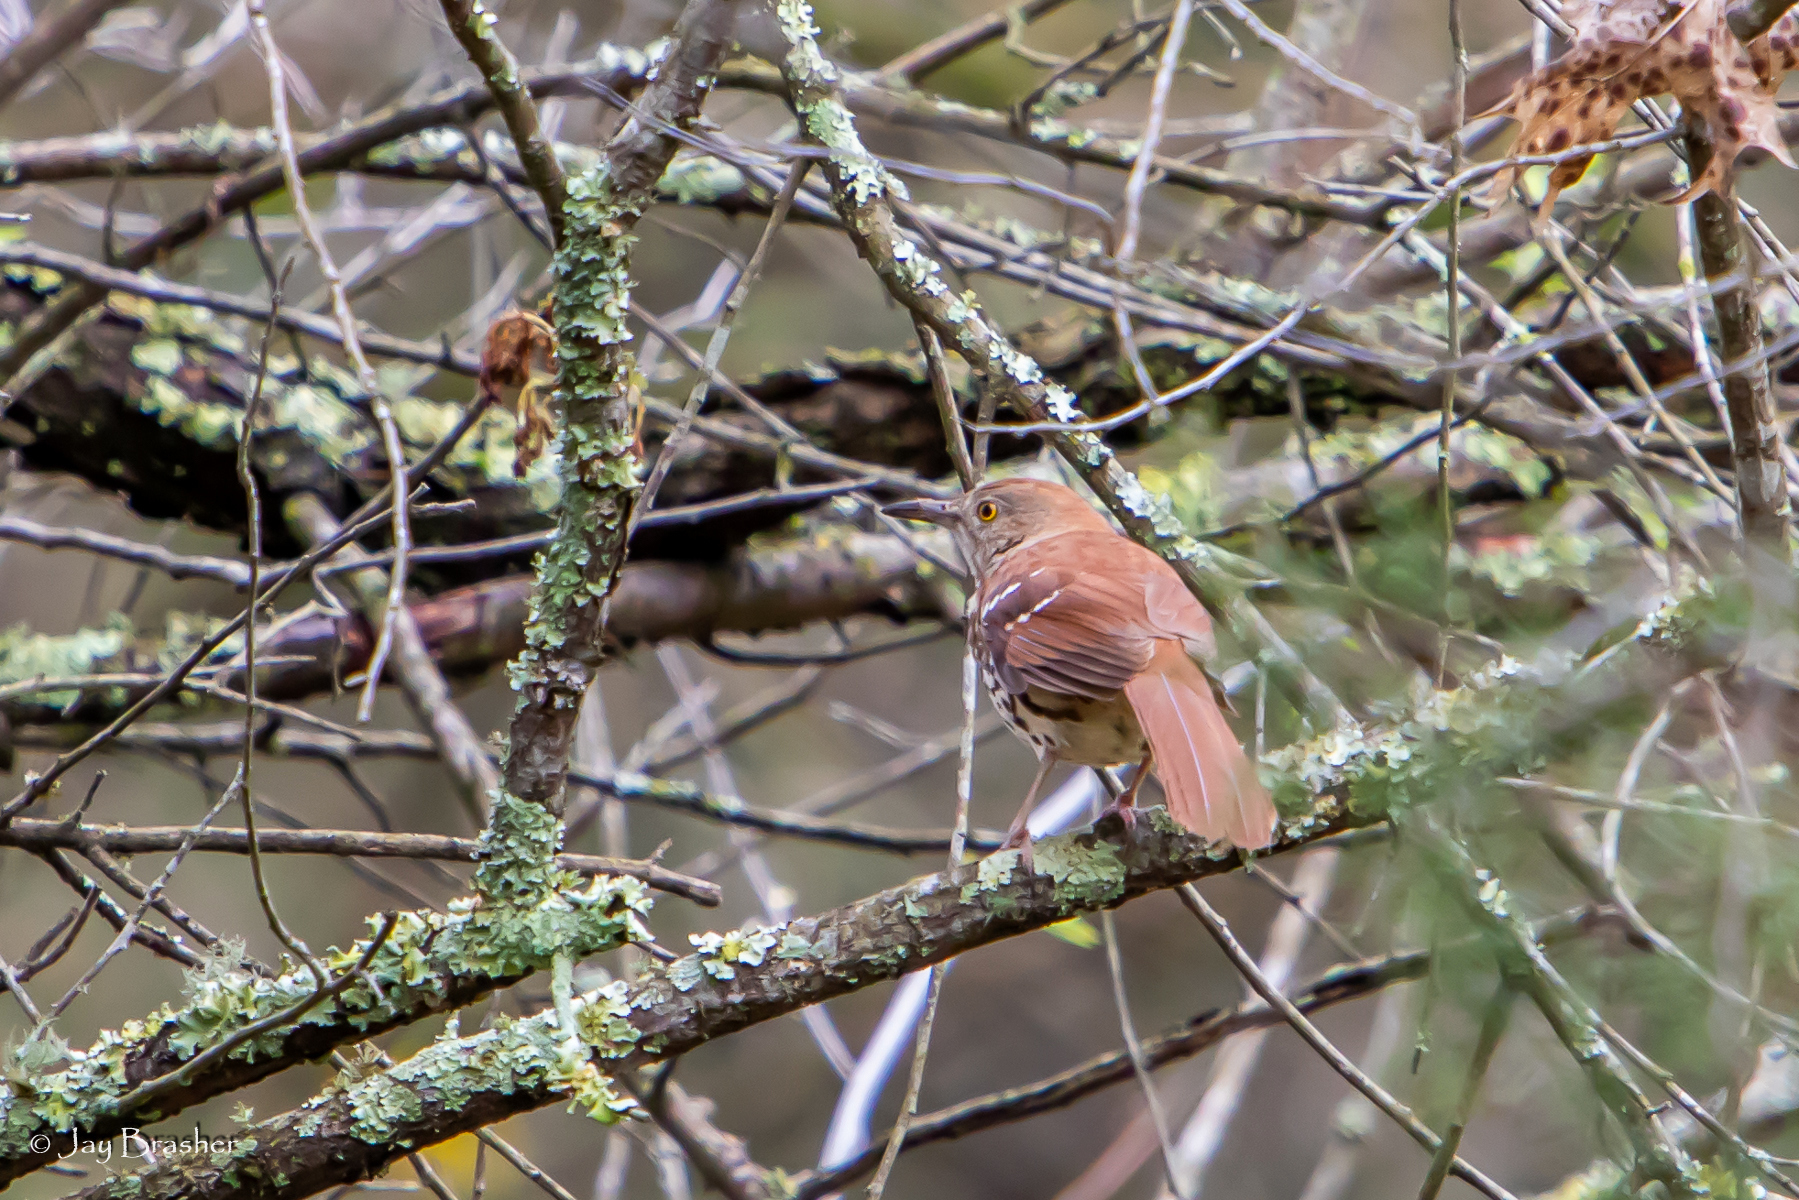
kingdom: Animalia
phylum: Chordata
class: Aves
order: Passeriformes
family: Mimidae
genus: Toxostoma
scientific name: Toxostoma rufum
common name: Brown thrasher
